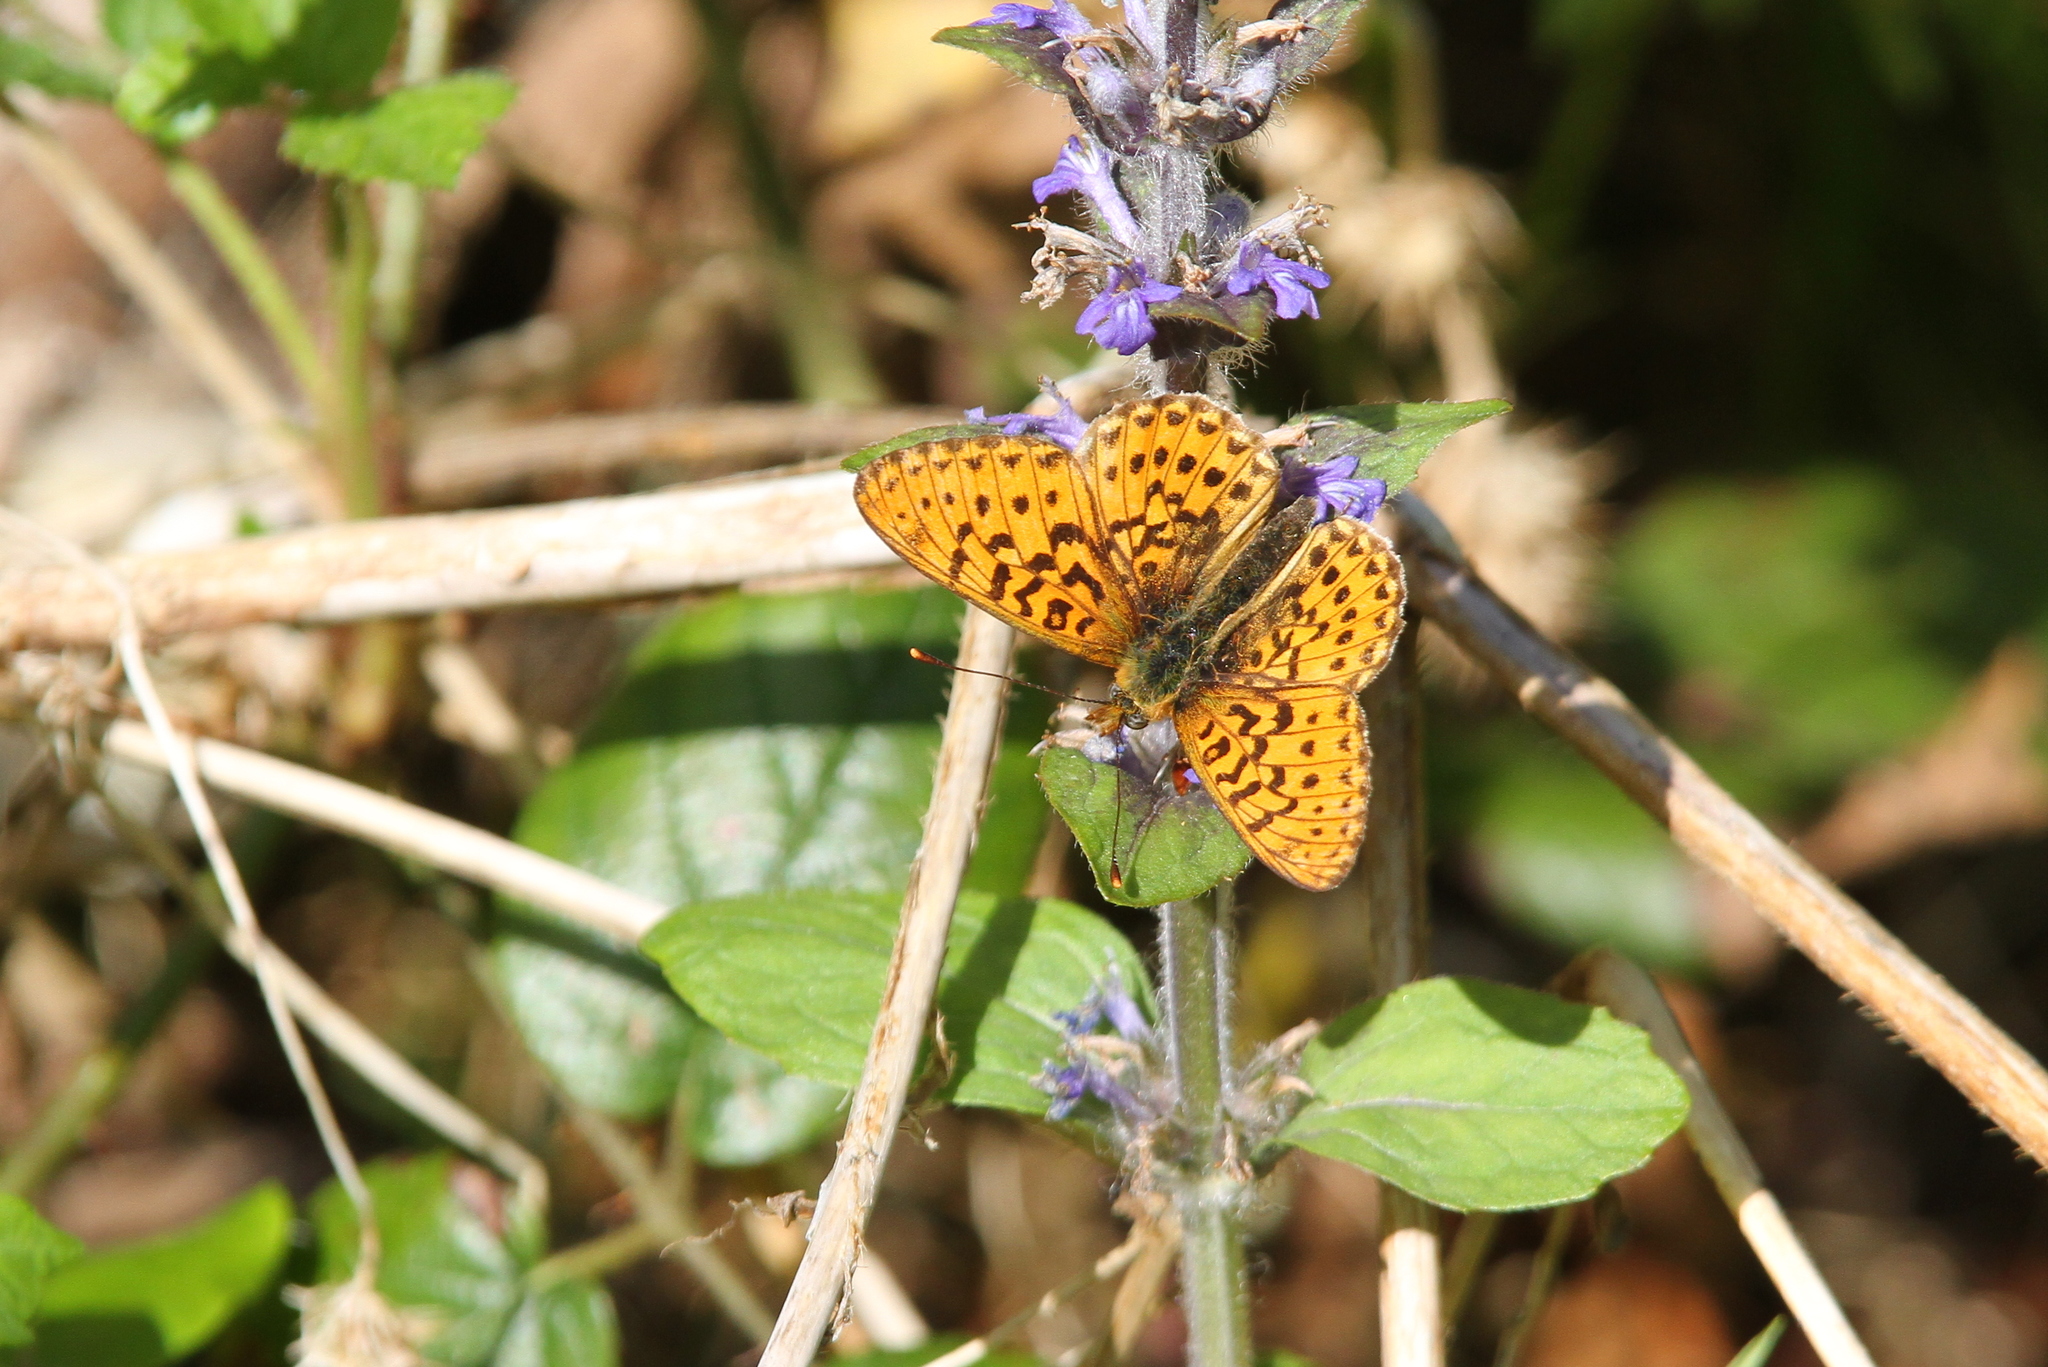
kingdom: Animalia
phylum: Arthropoda
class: Insecta
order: Lepidoptera
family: Nymphalidae
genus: Clossiana
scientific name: Clossiana euphrosyne
